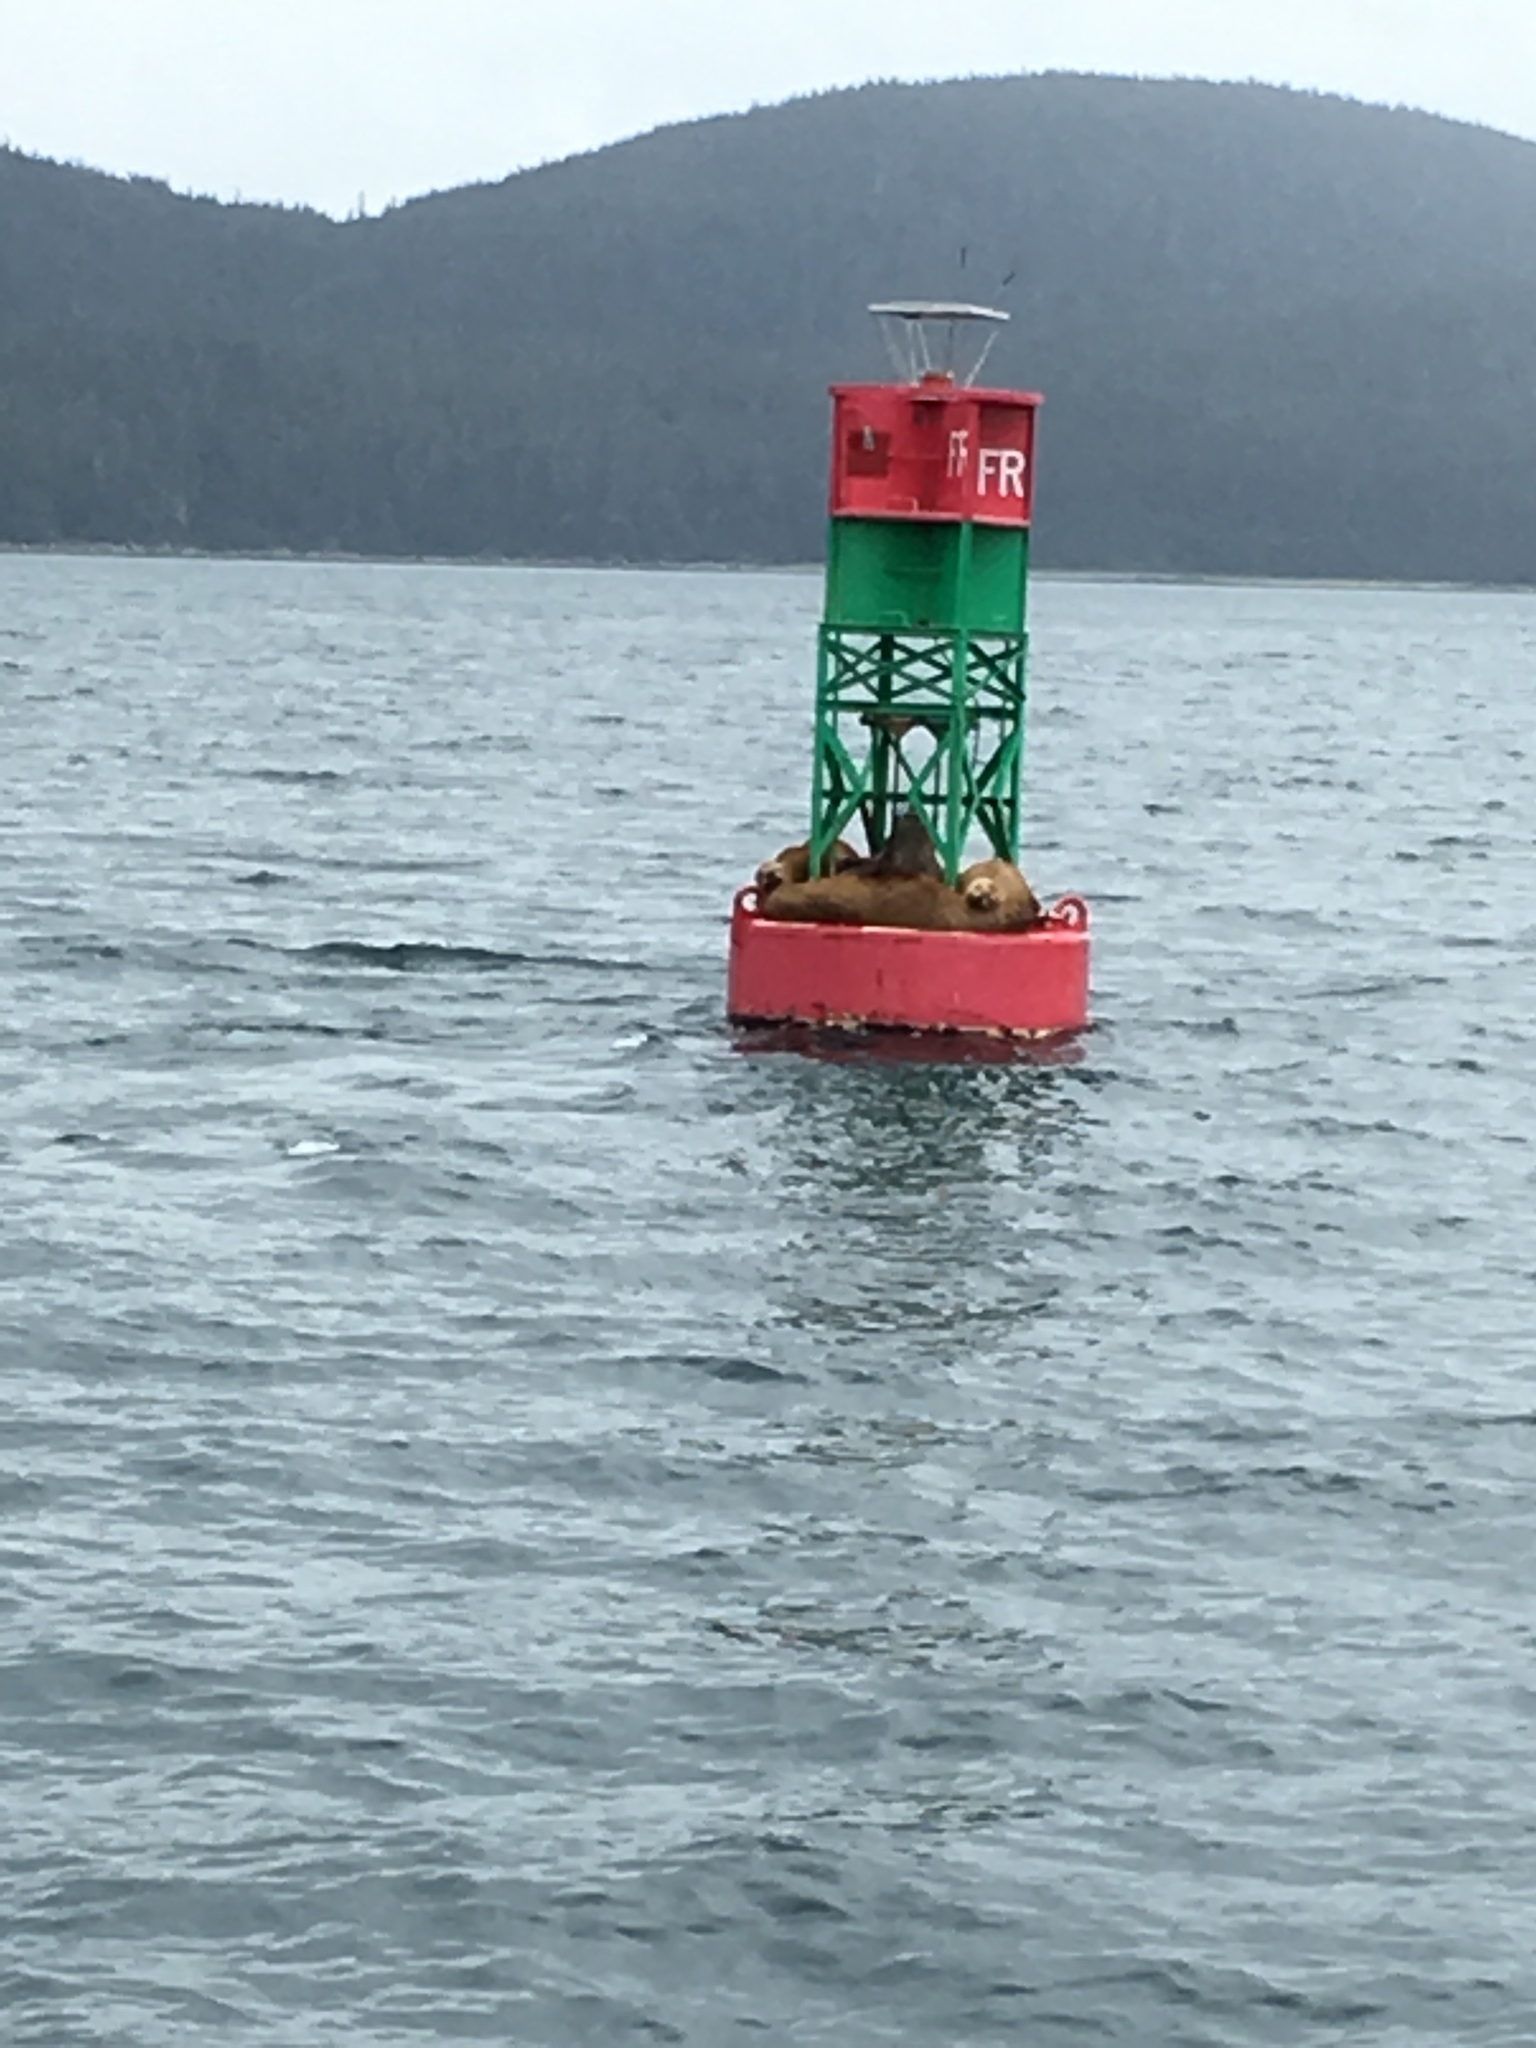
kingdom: Animalia
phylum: Chordata
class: Mammalia
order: Carnivora
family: Otariidae
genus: Eumetopias
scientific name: Eumetopias jubatus
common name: Steller sea lion
